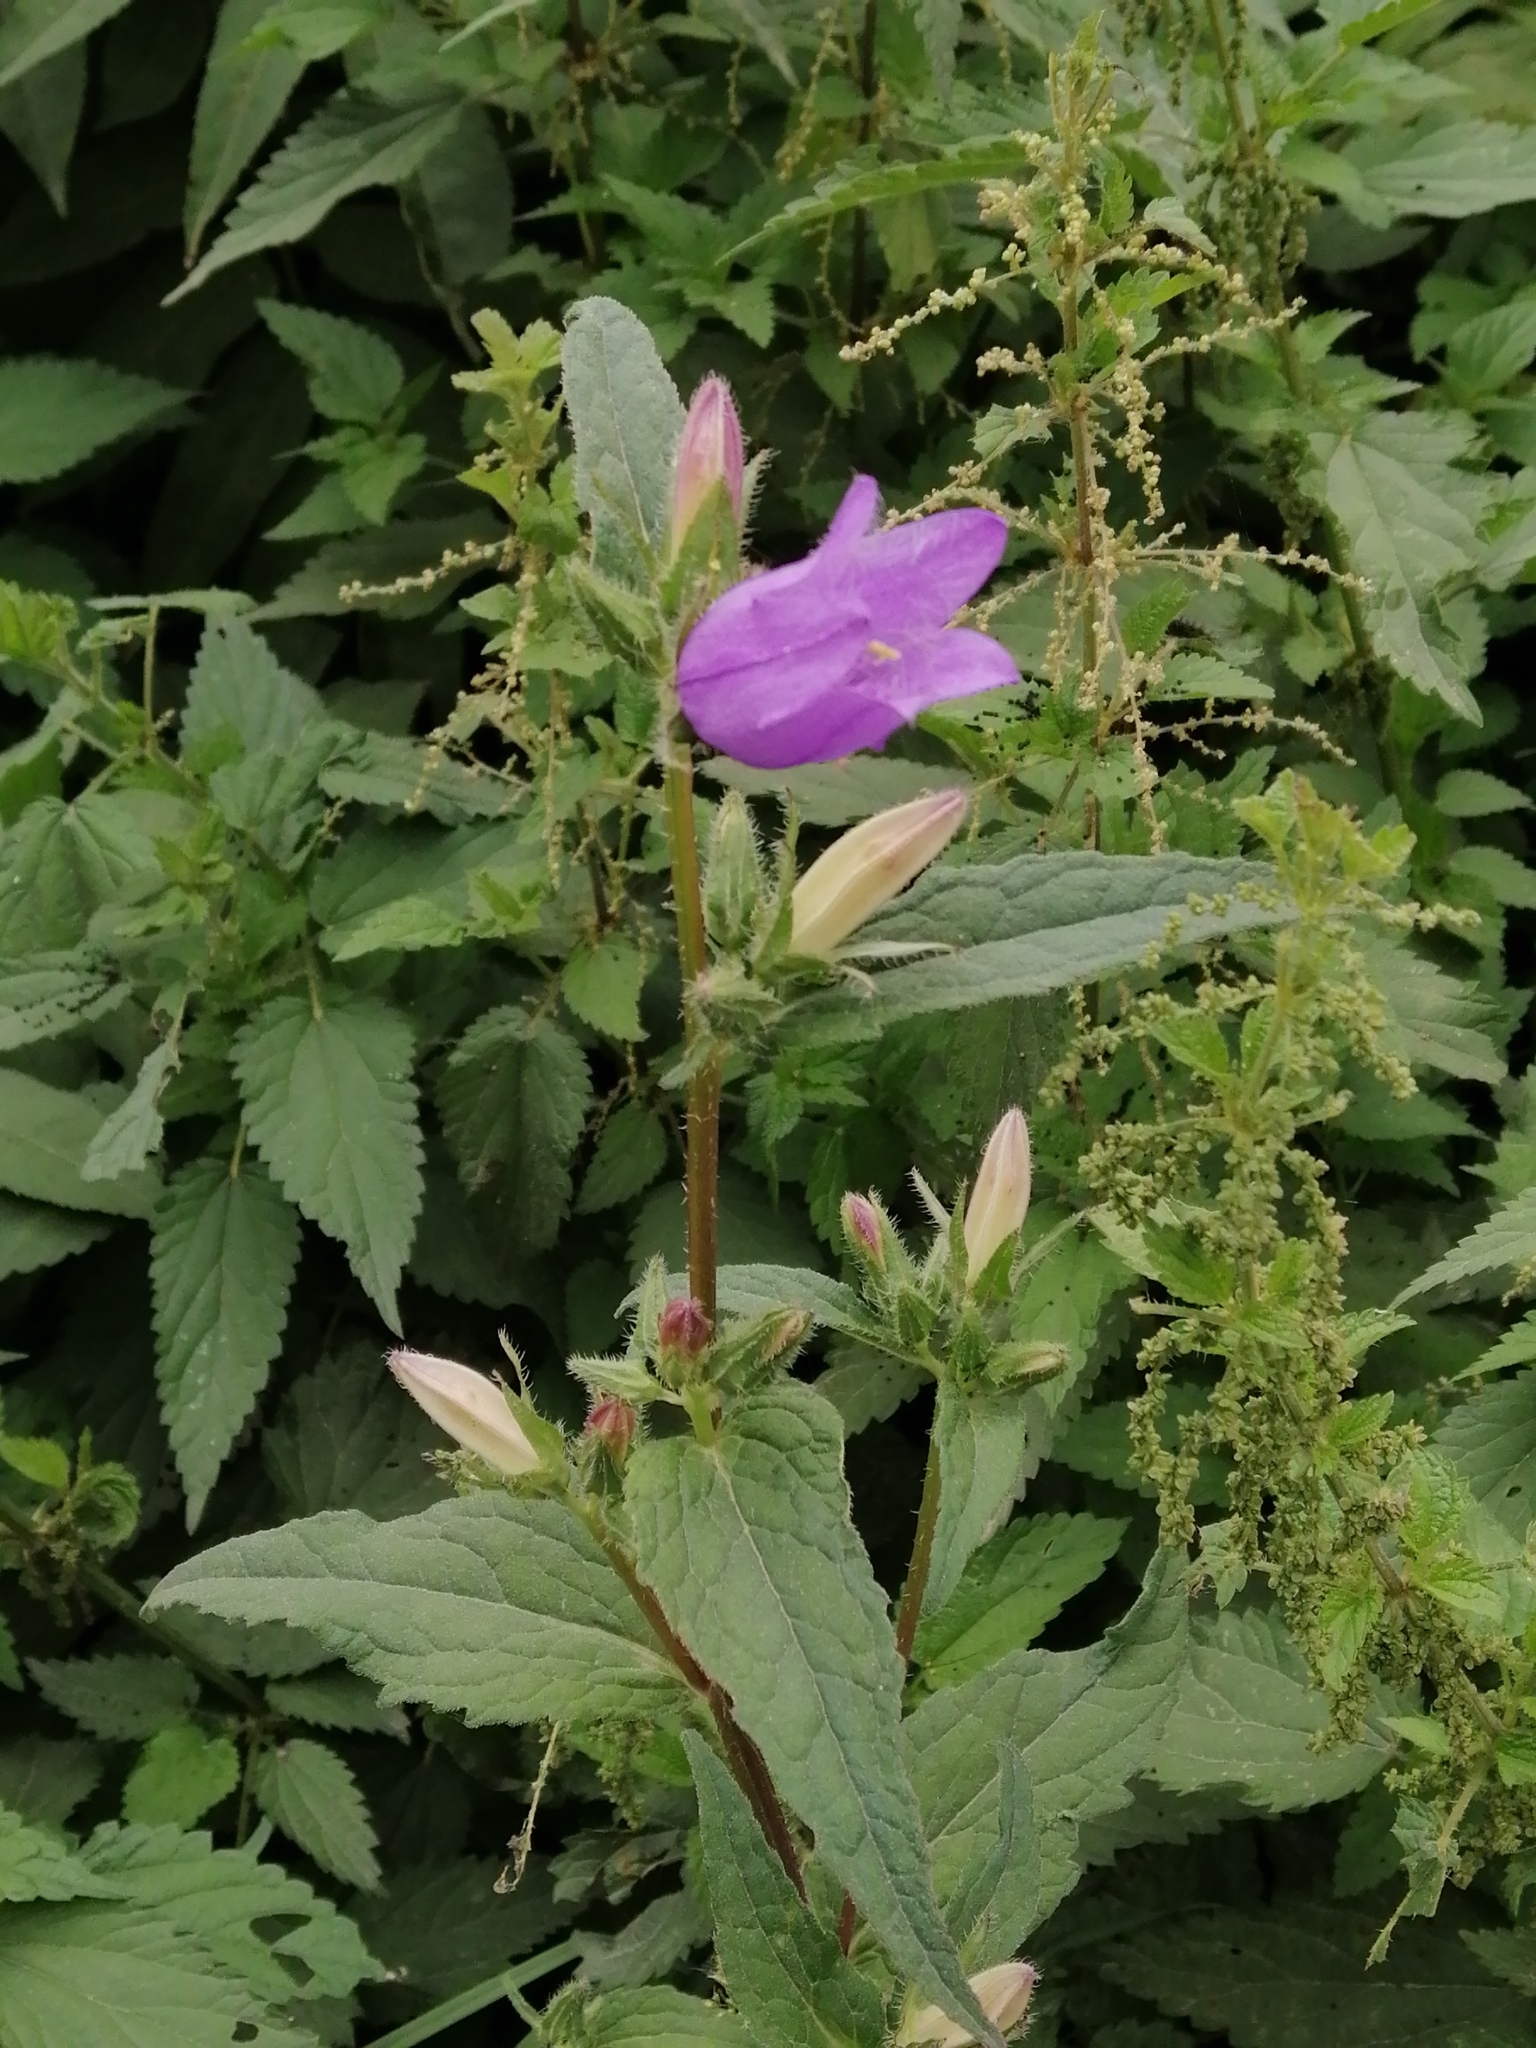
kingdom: Plantae
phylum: Tracheophyta
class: Magnoliopsida
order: Asterales
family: Campanulaceae
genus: Campanula
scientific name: Campanula trachelium
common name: Nettle-leaved bellflower
